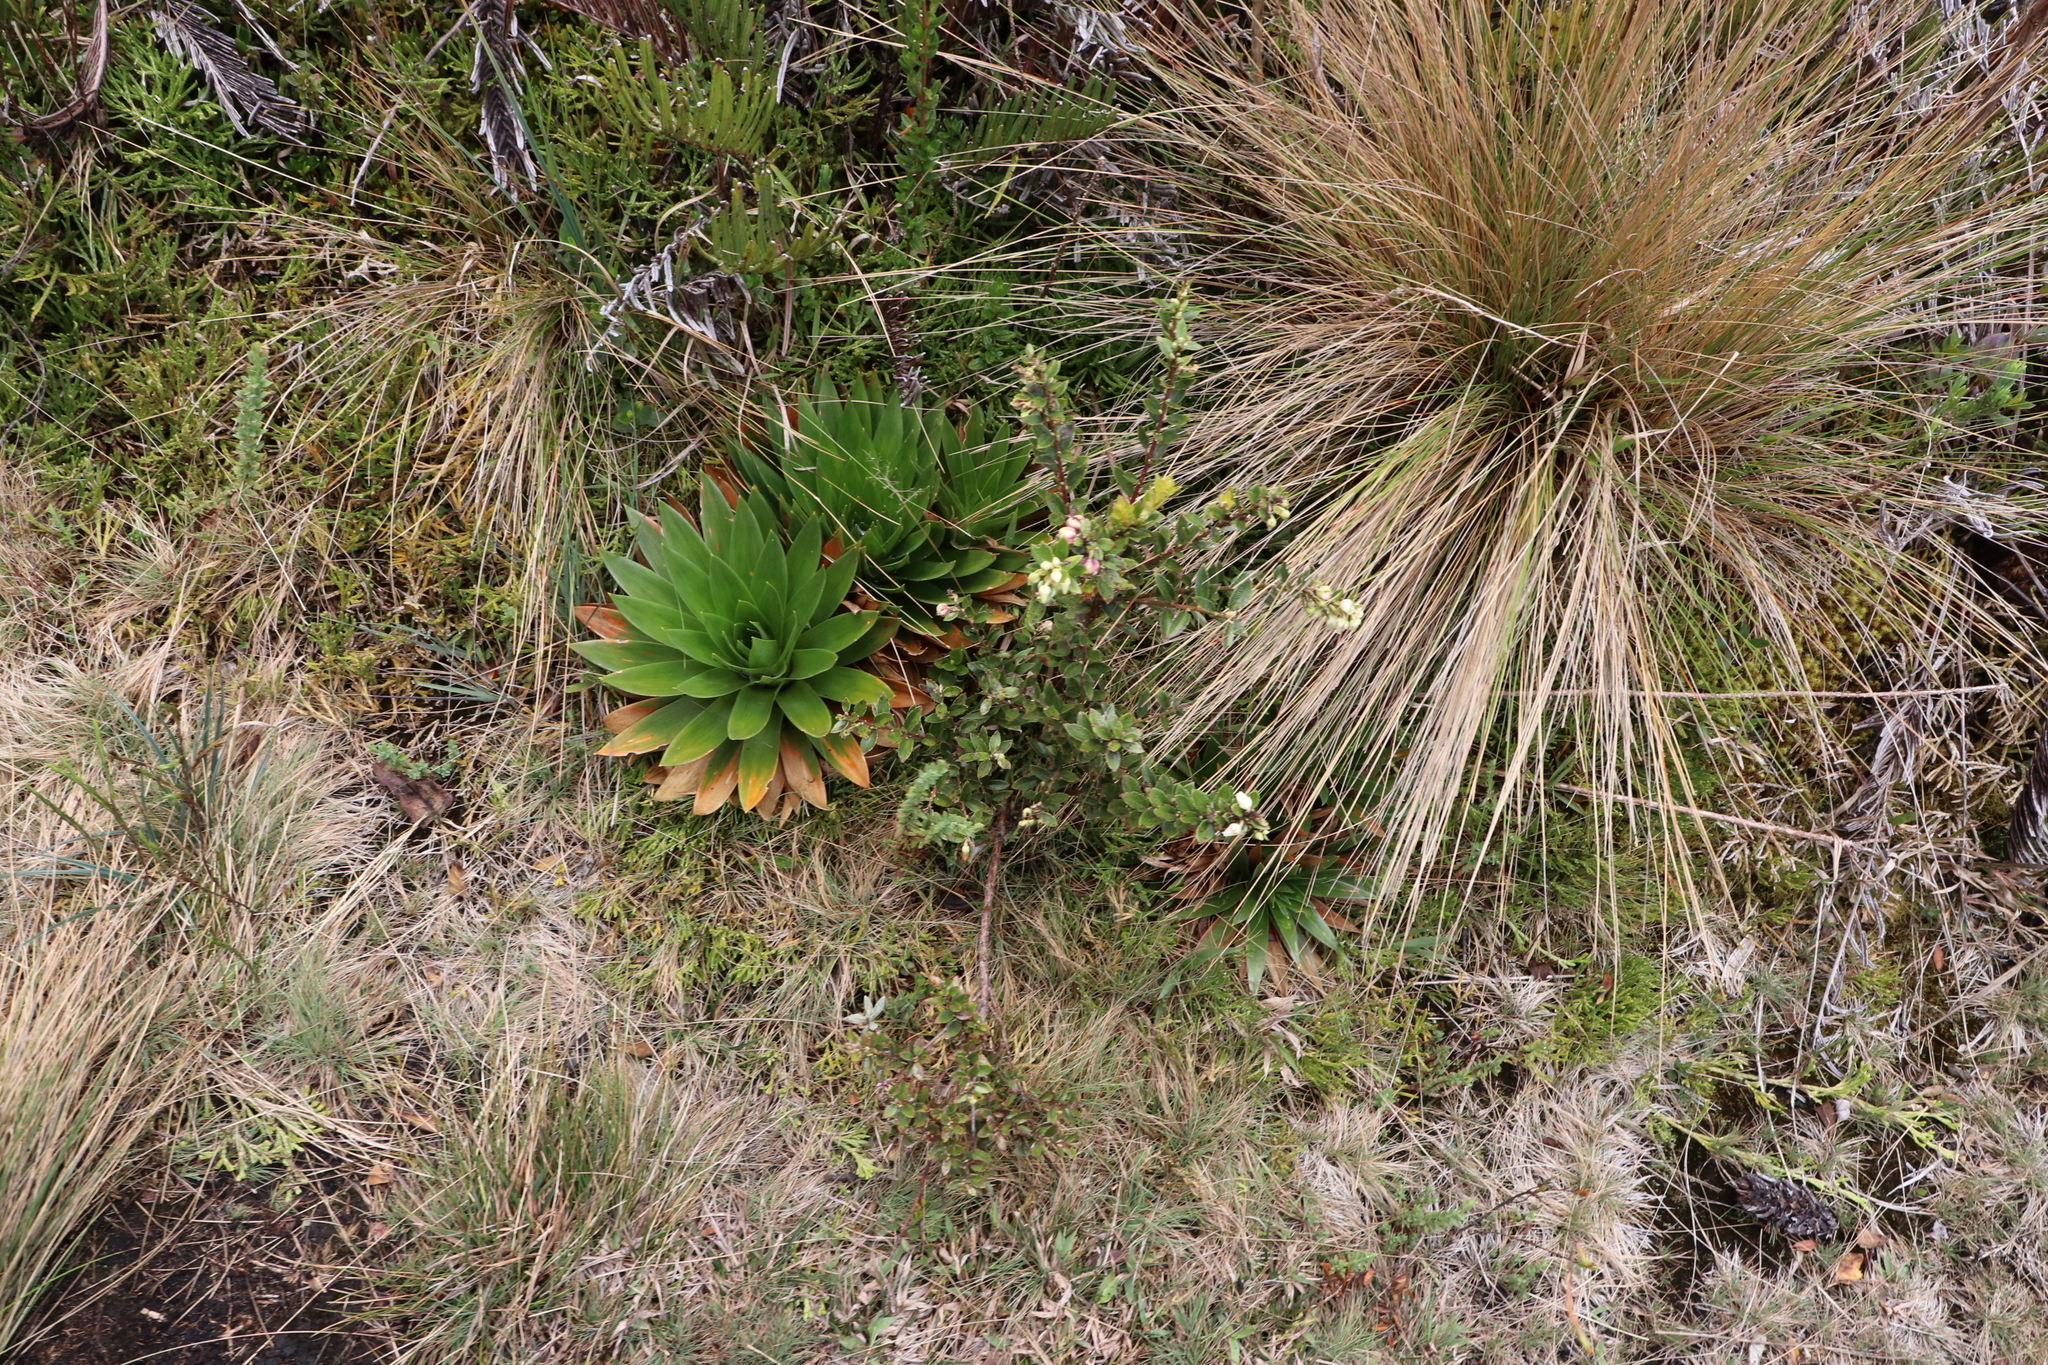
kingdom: Plantae
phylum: Tracheophyta
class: Liliopsida
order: Poales
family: Eriocaulaceae
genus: Paepalanthus
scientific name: Paepalanthus alpinus
